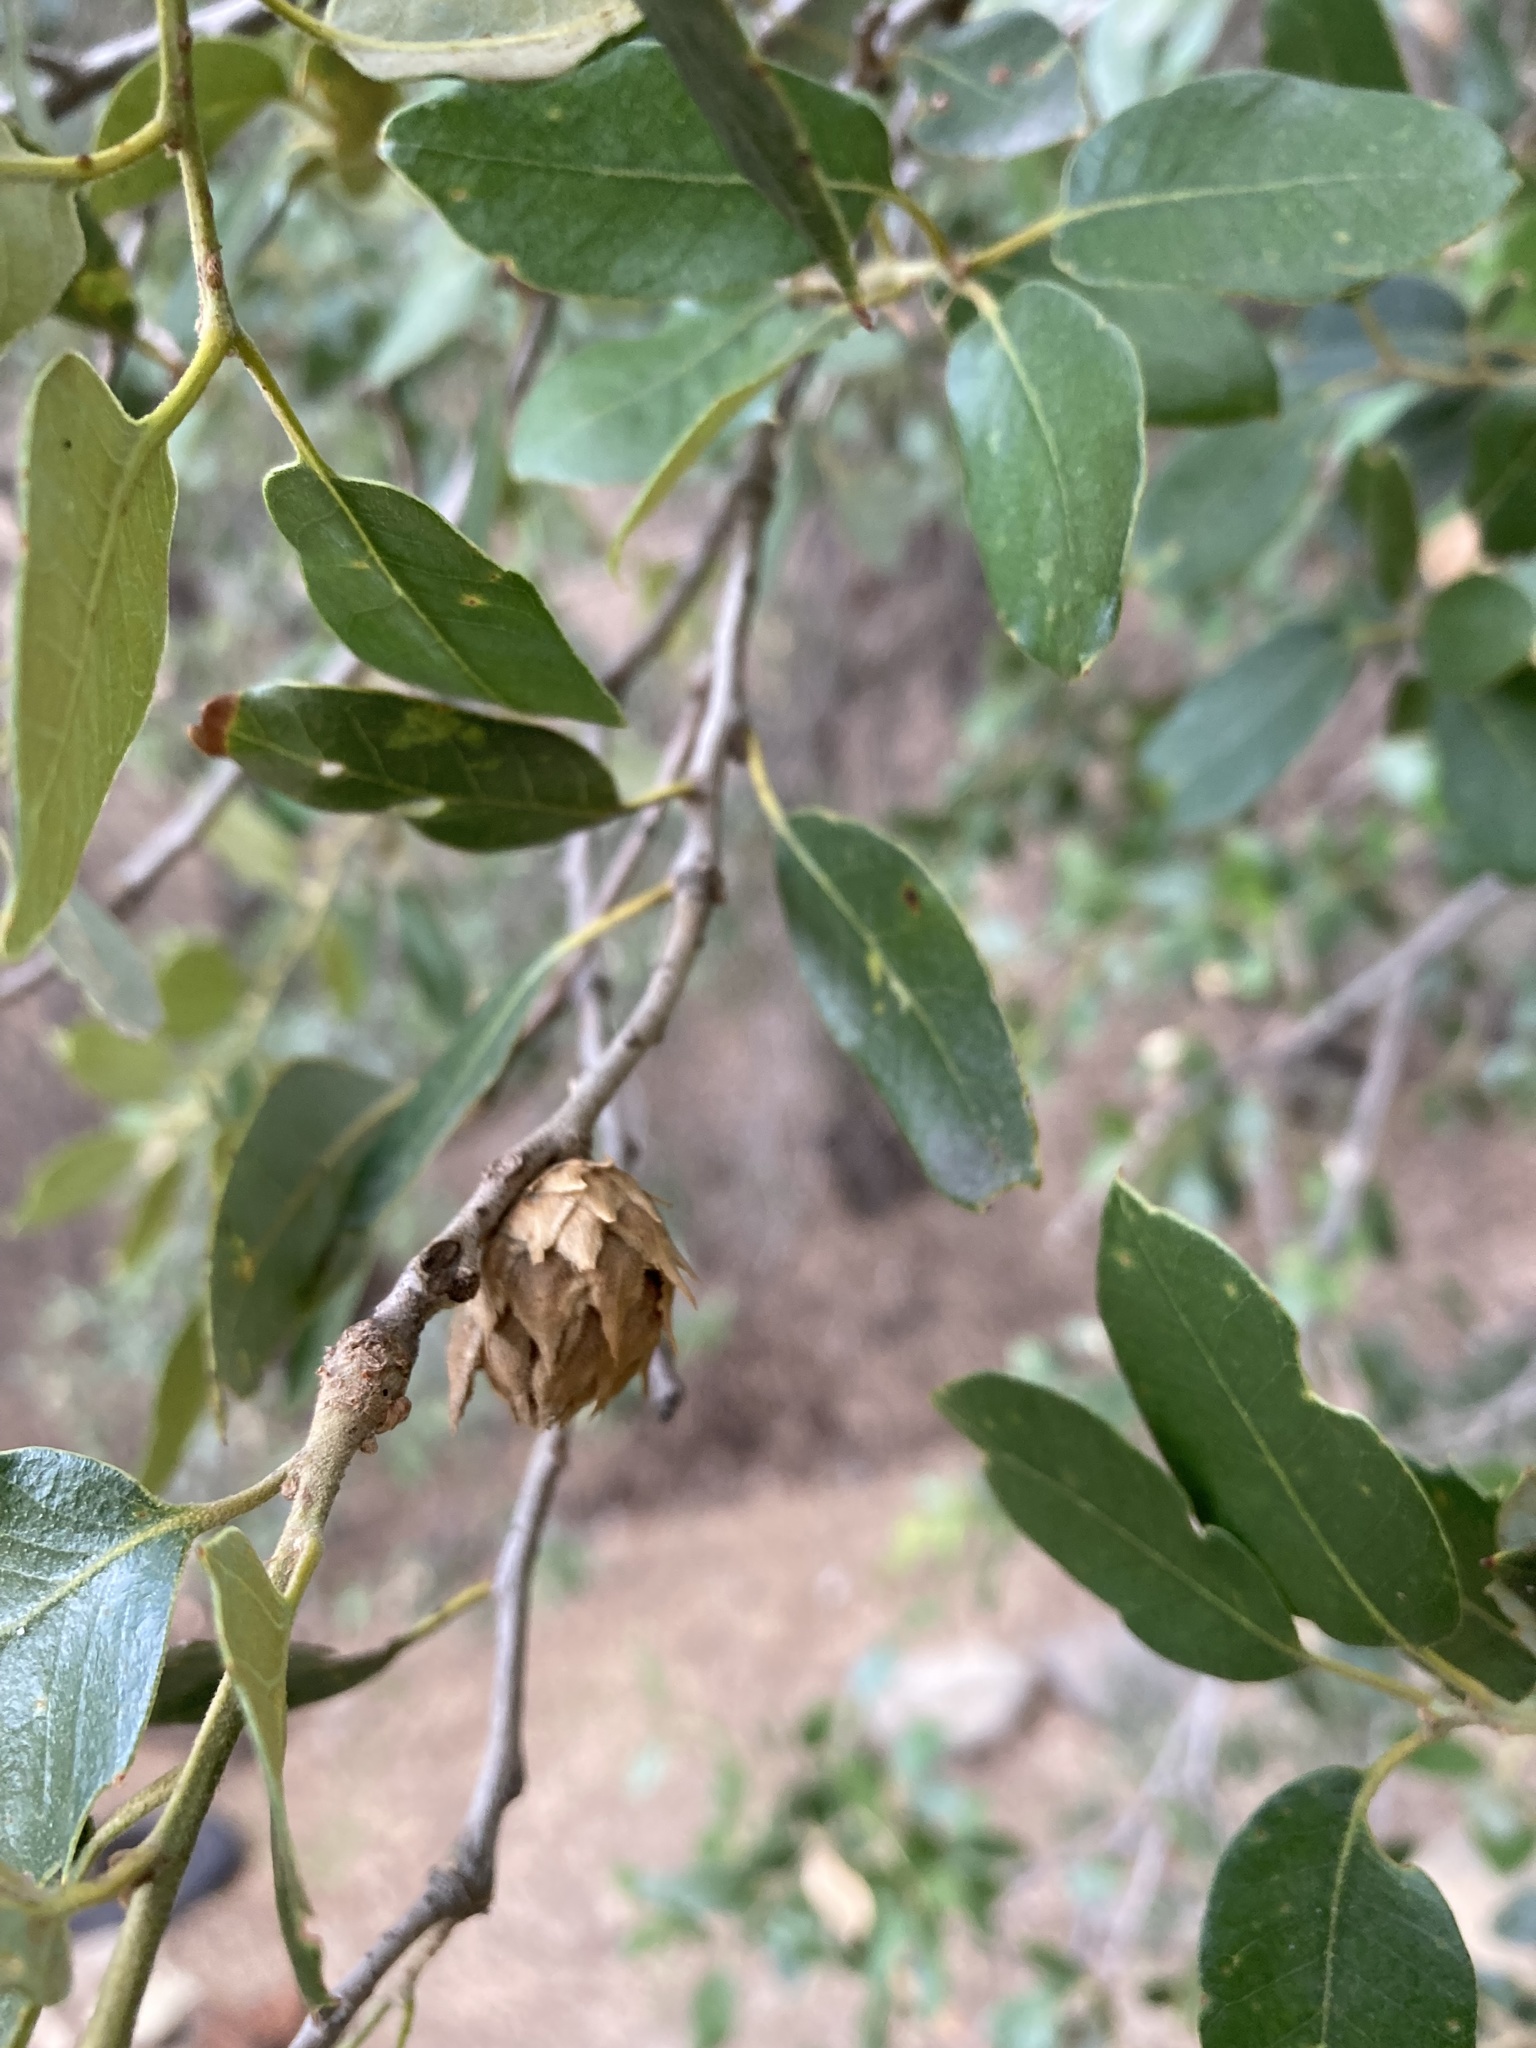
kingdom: Animalia
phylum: Arthropoda
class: Insecta
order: Hymenoptera
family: Cynipidae
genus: Andricus
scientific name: Andricus
